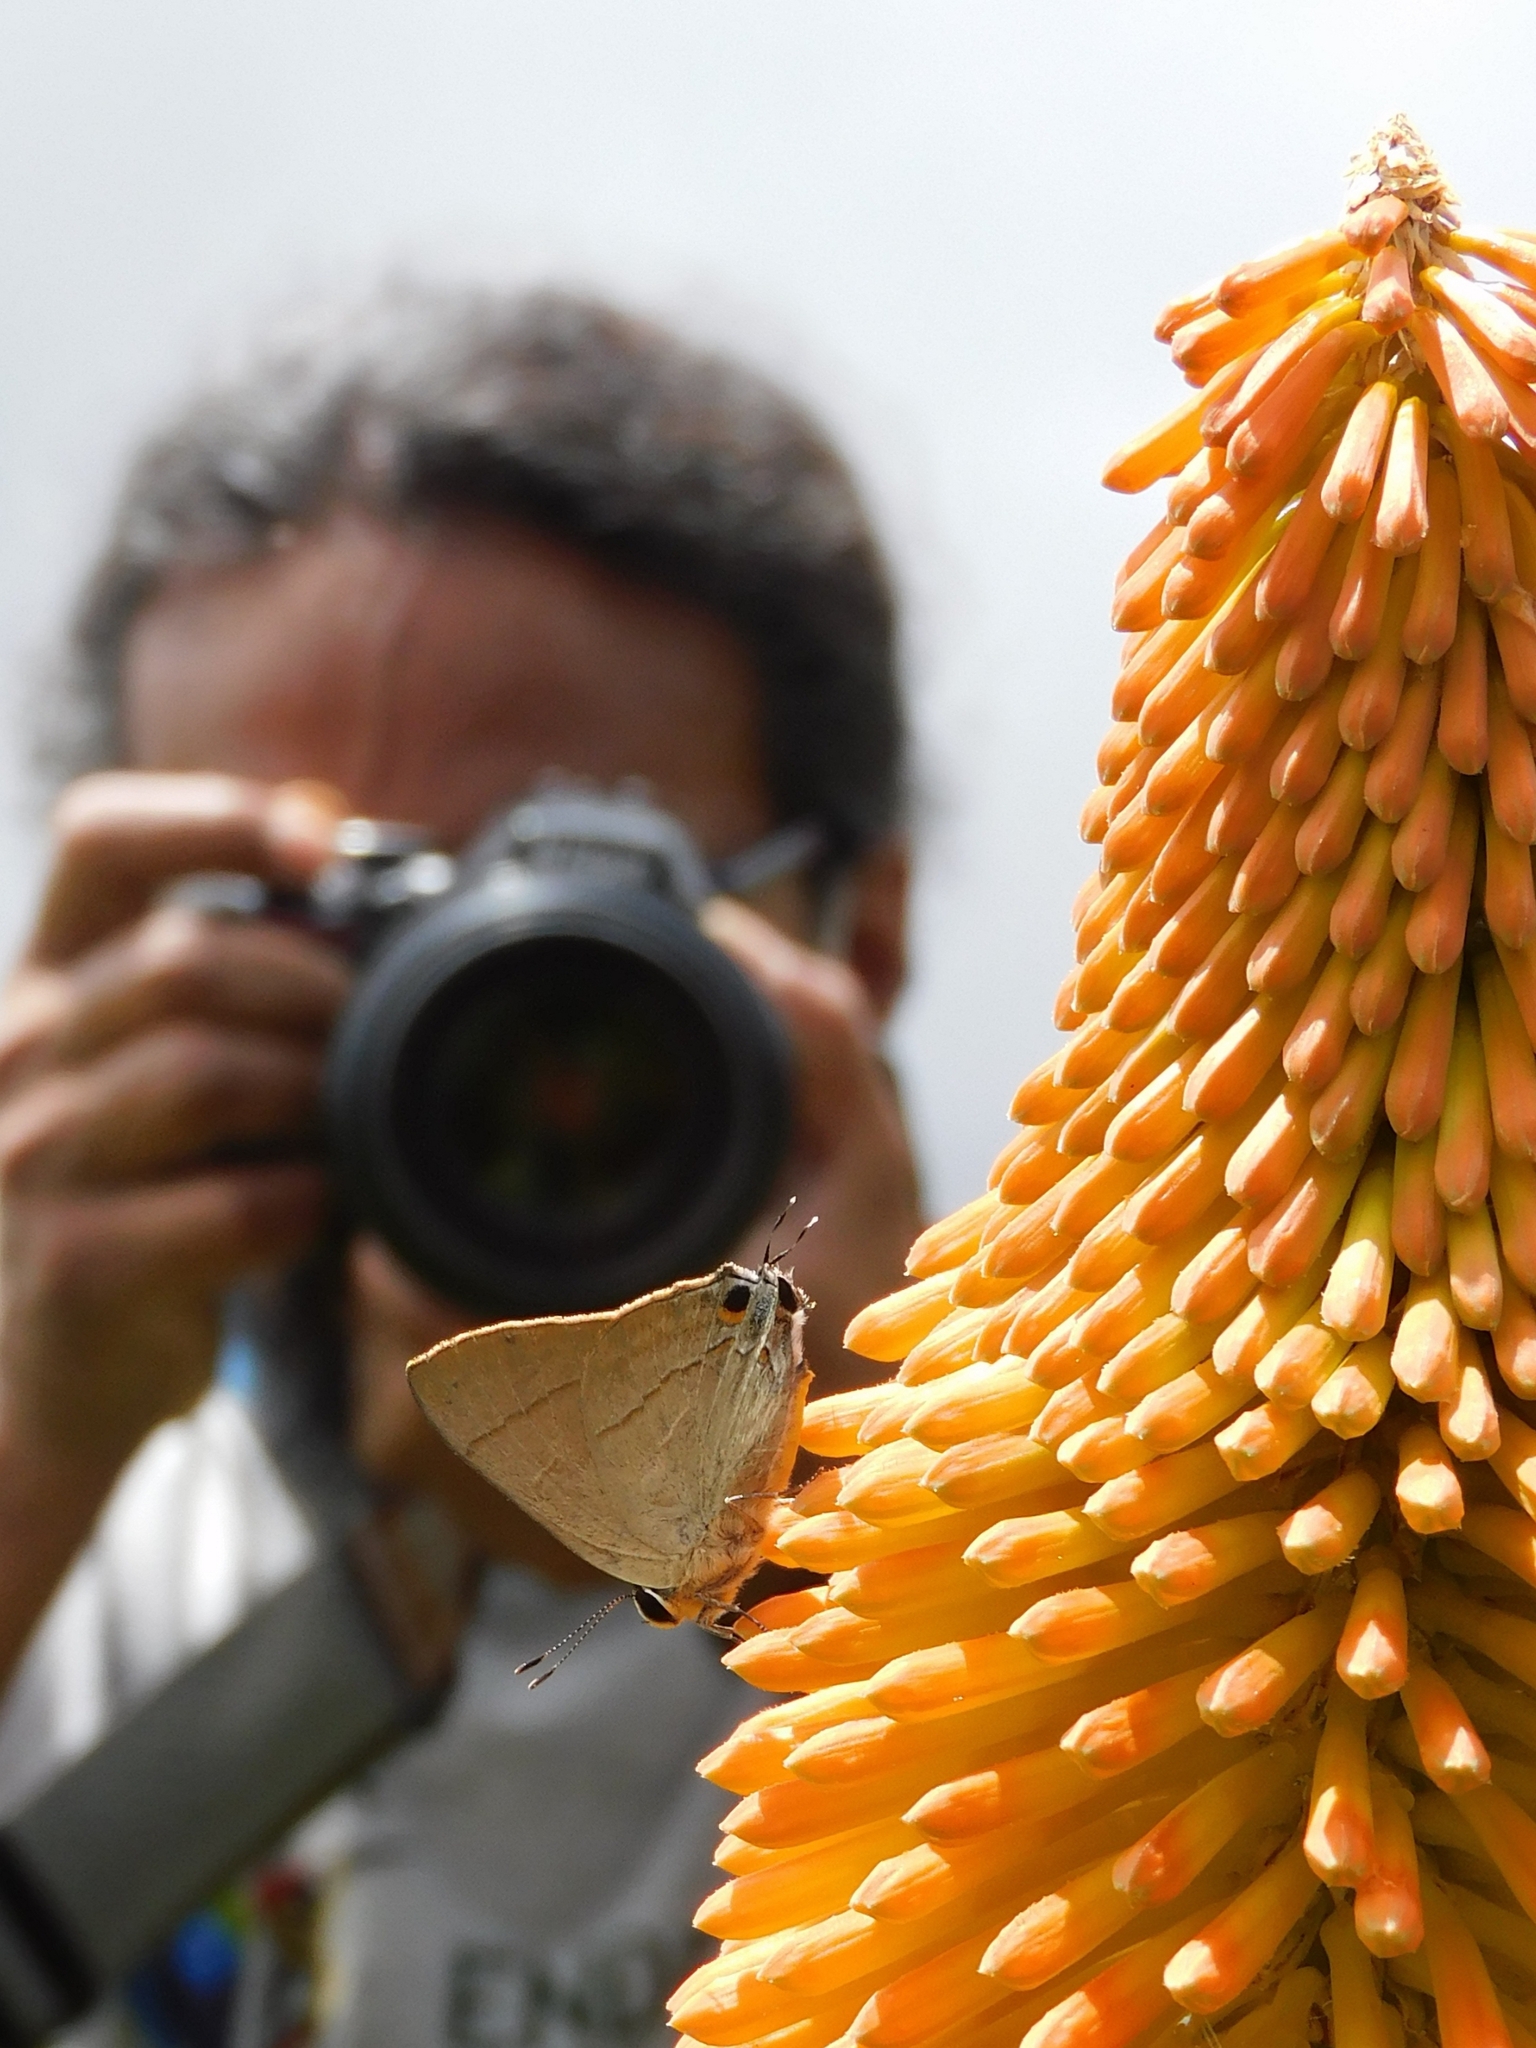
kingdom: Animalia
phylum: Arthropoda
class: Insecta
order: Lepidoptera
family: Lycaenidae
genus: Rapala
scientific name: Rapala nissa
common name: Common flash
